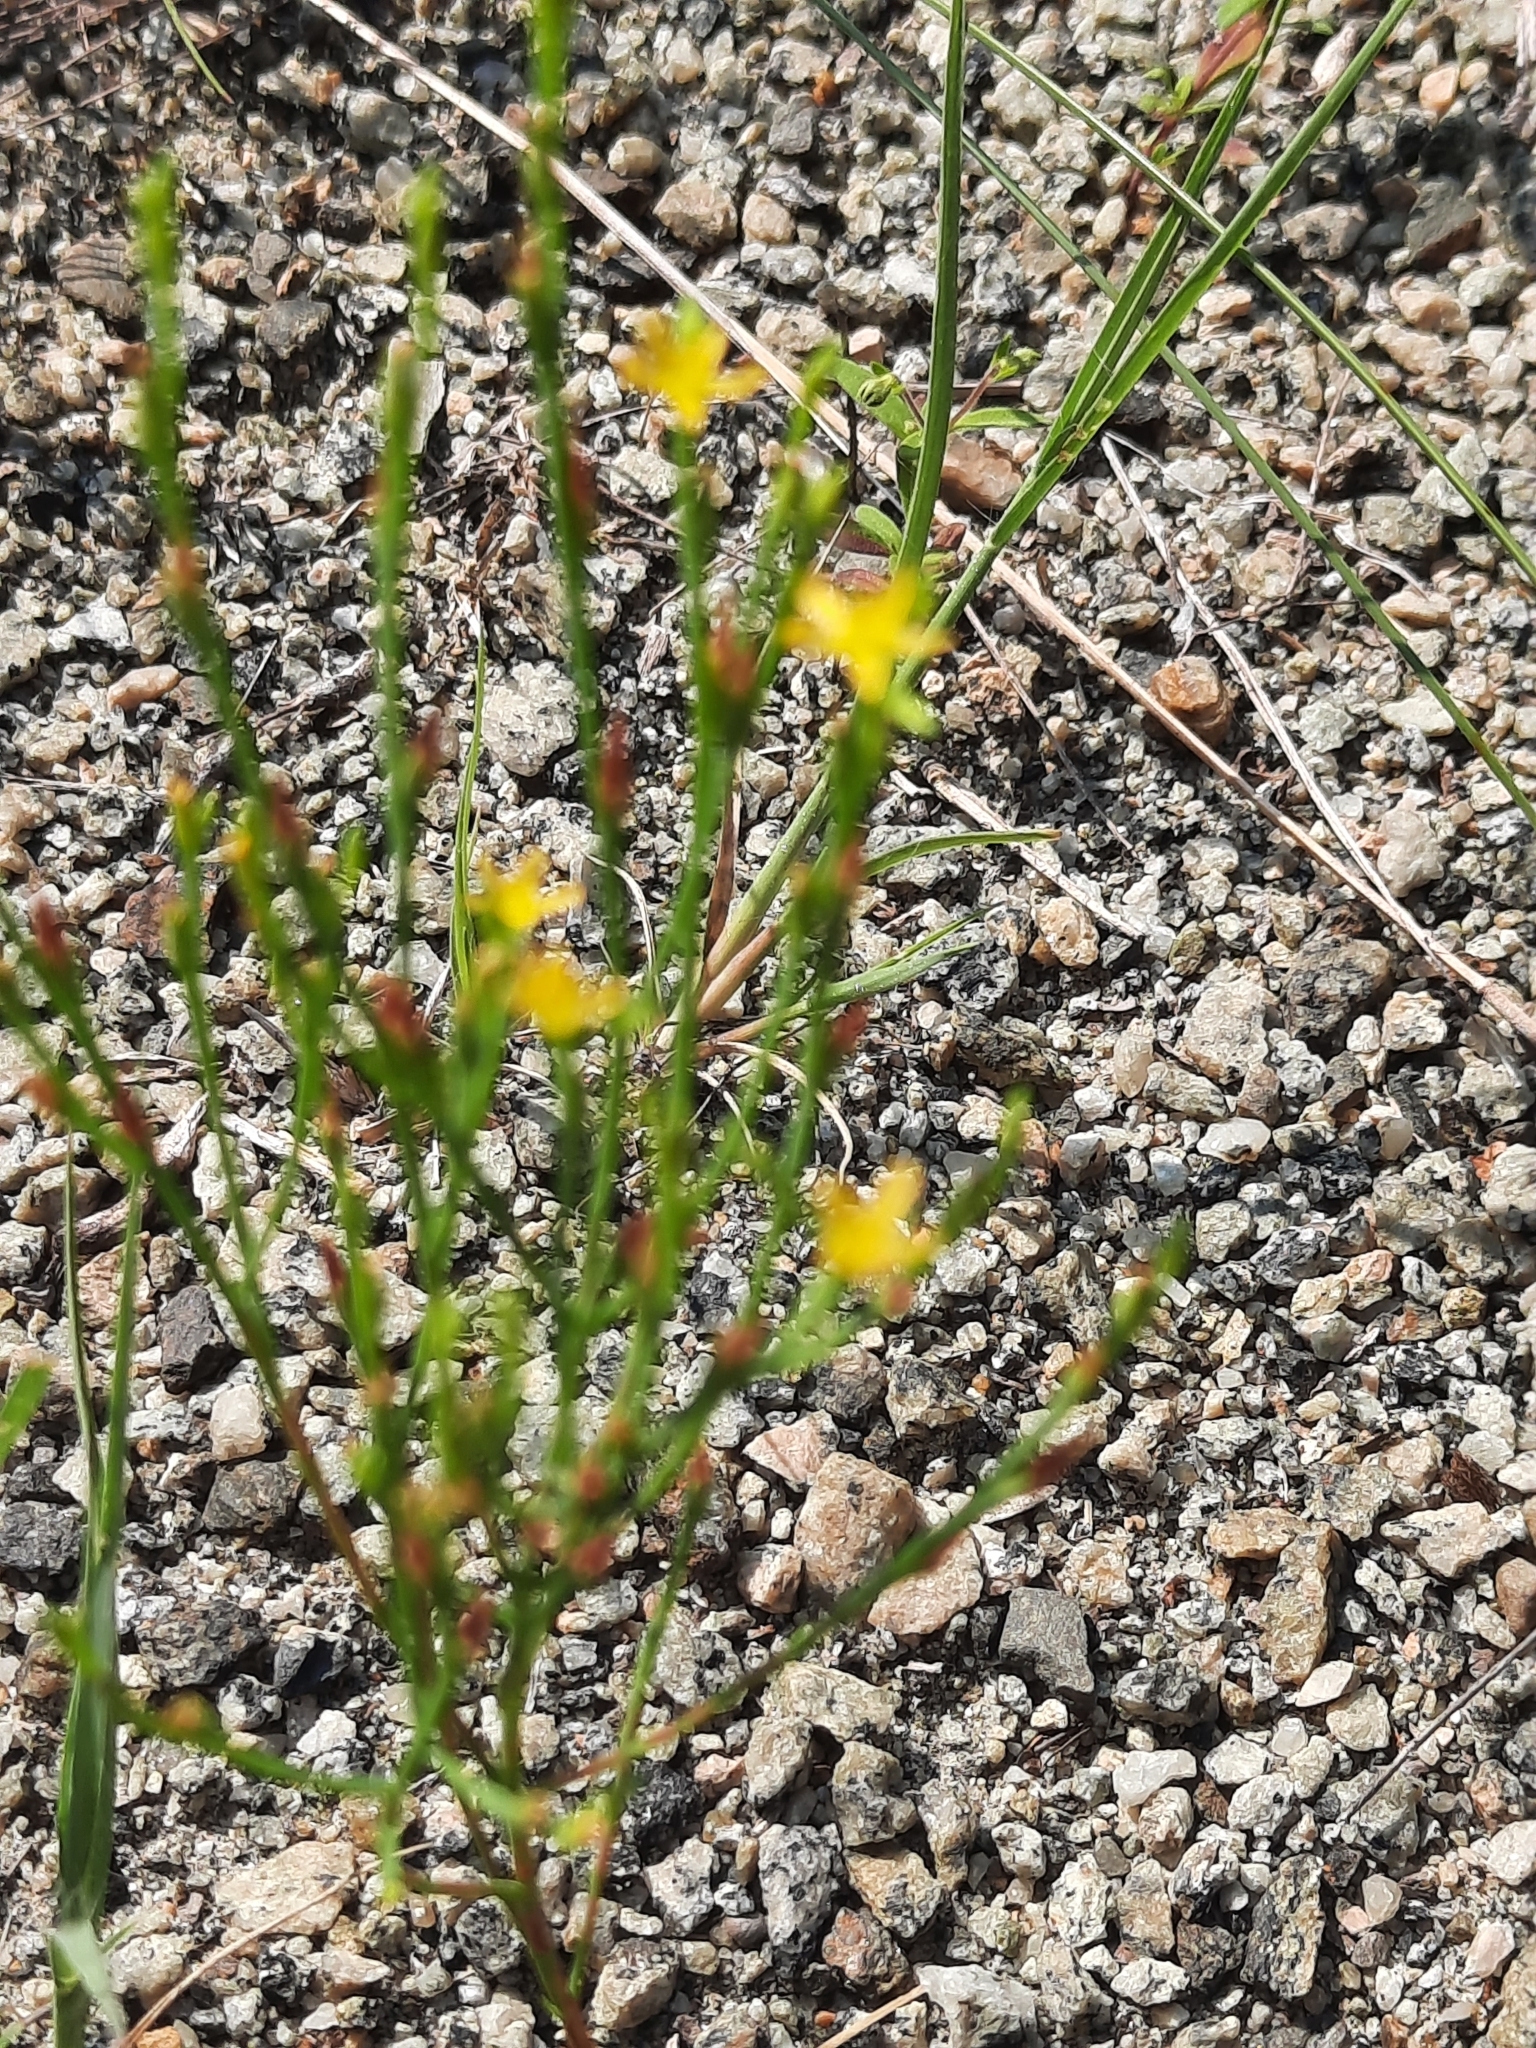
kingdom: Plantae
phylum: Tracheophyta
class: Magnoliopsida
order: Malpighiales
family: Hypericaceae
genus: Hypericum
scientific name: Hypericum gentianoides
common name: Gentian-leaved st. john's-wort
